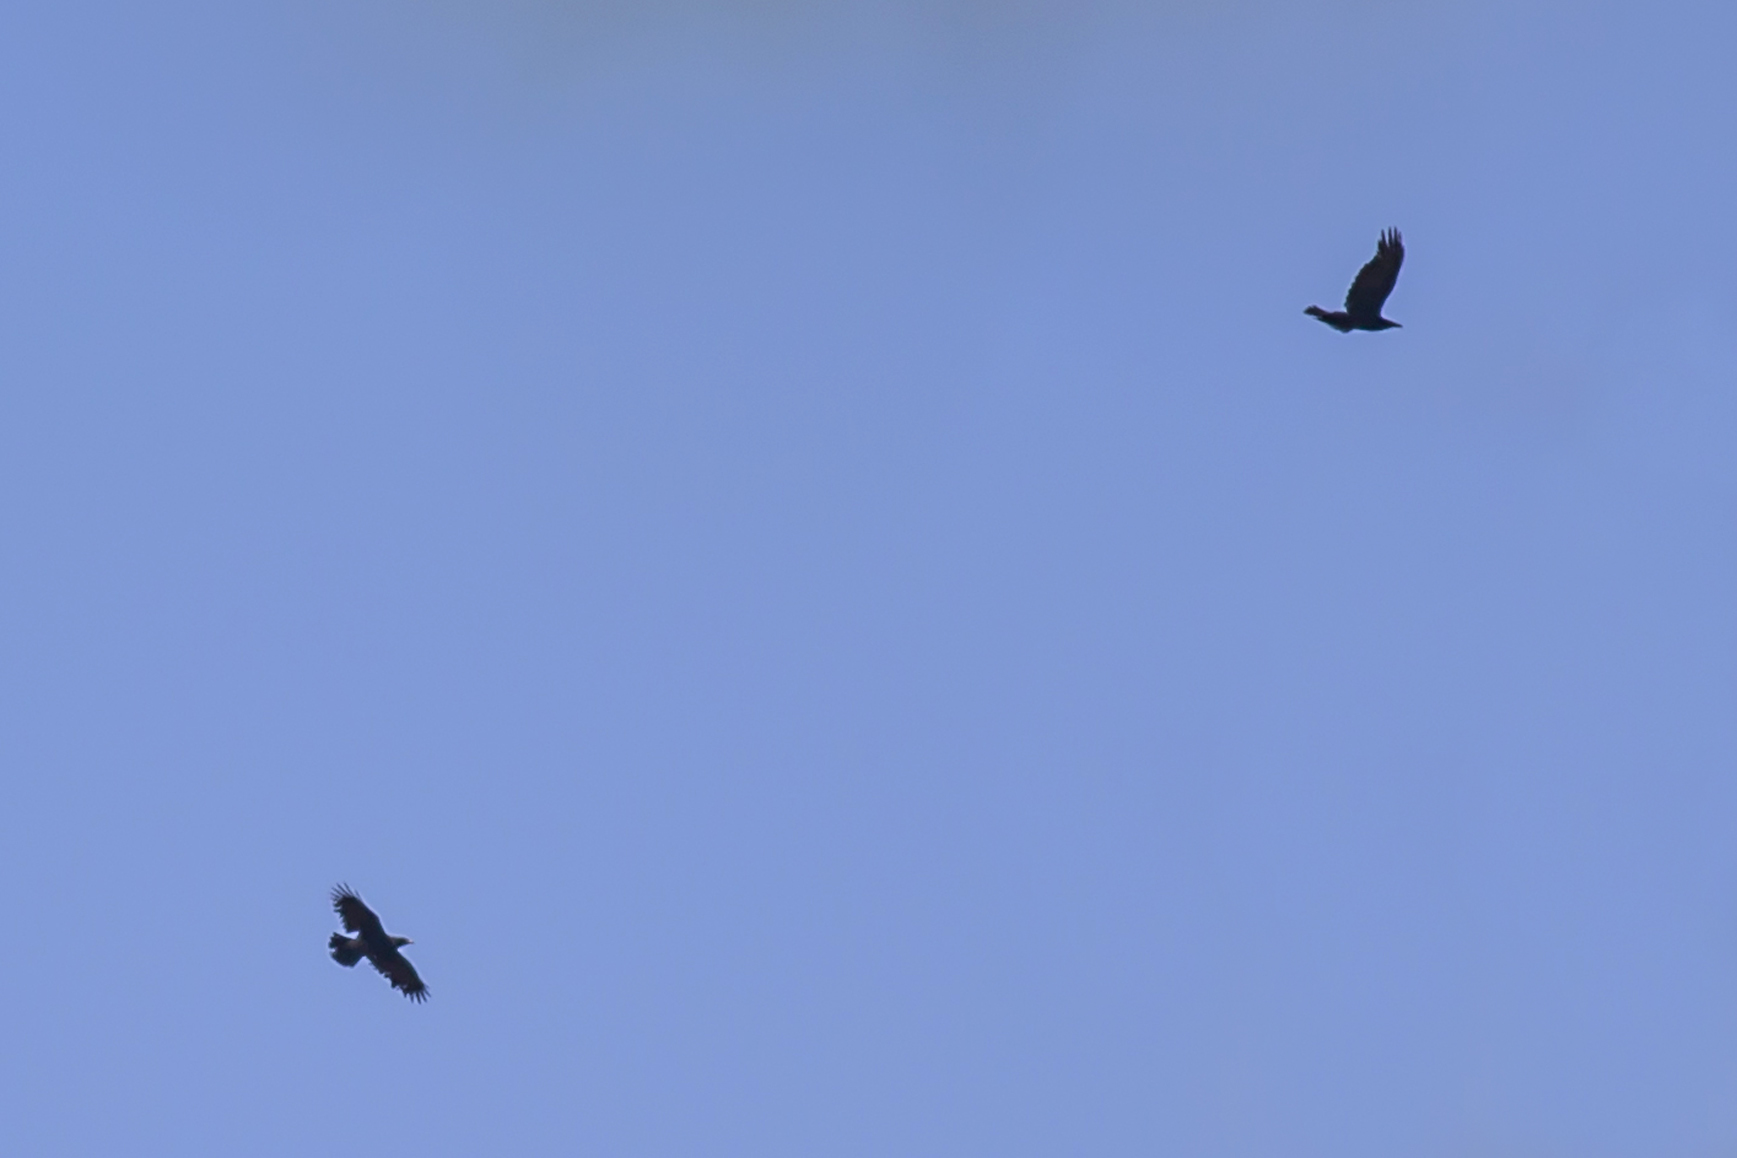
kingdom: Animalia
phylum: Chordata
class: Aves
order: Passeriformes
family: Corvidae
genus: Corvus
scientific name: Corvus corax
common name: Common raven
